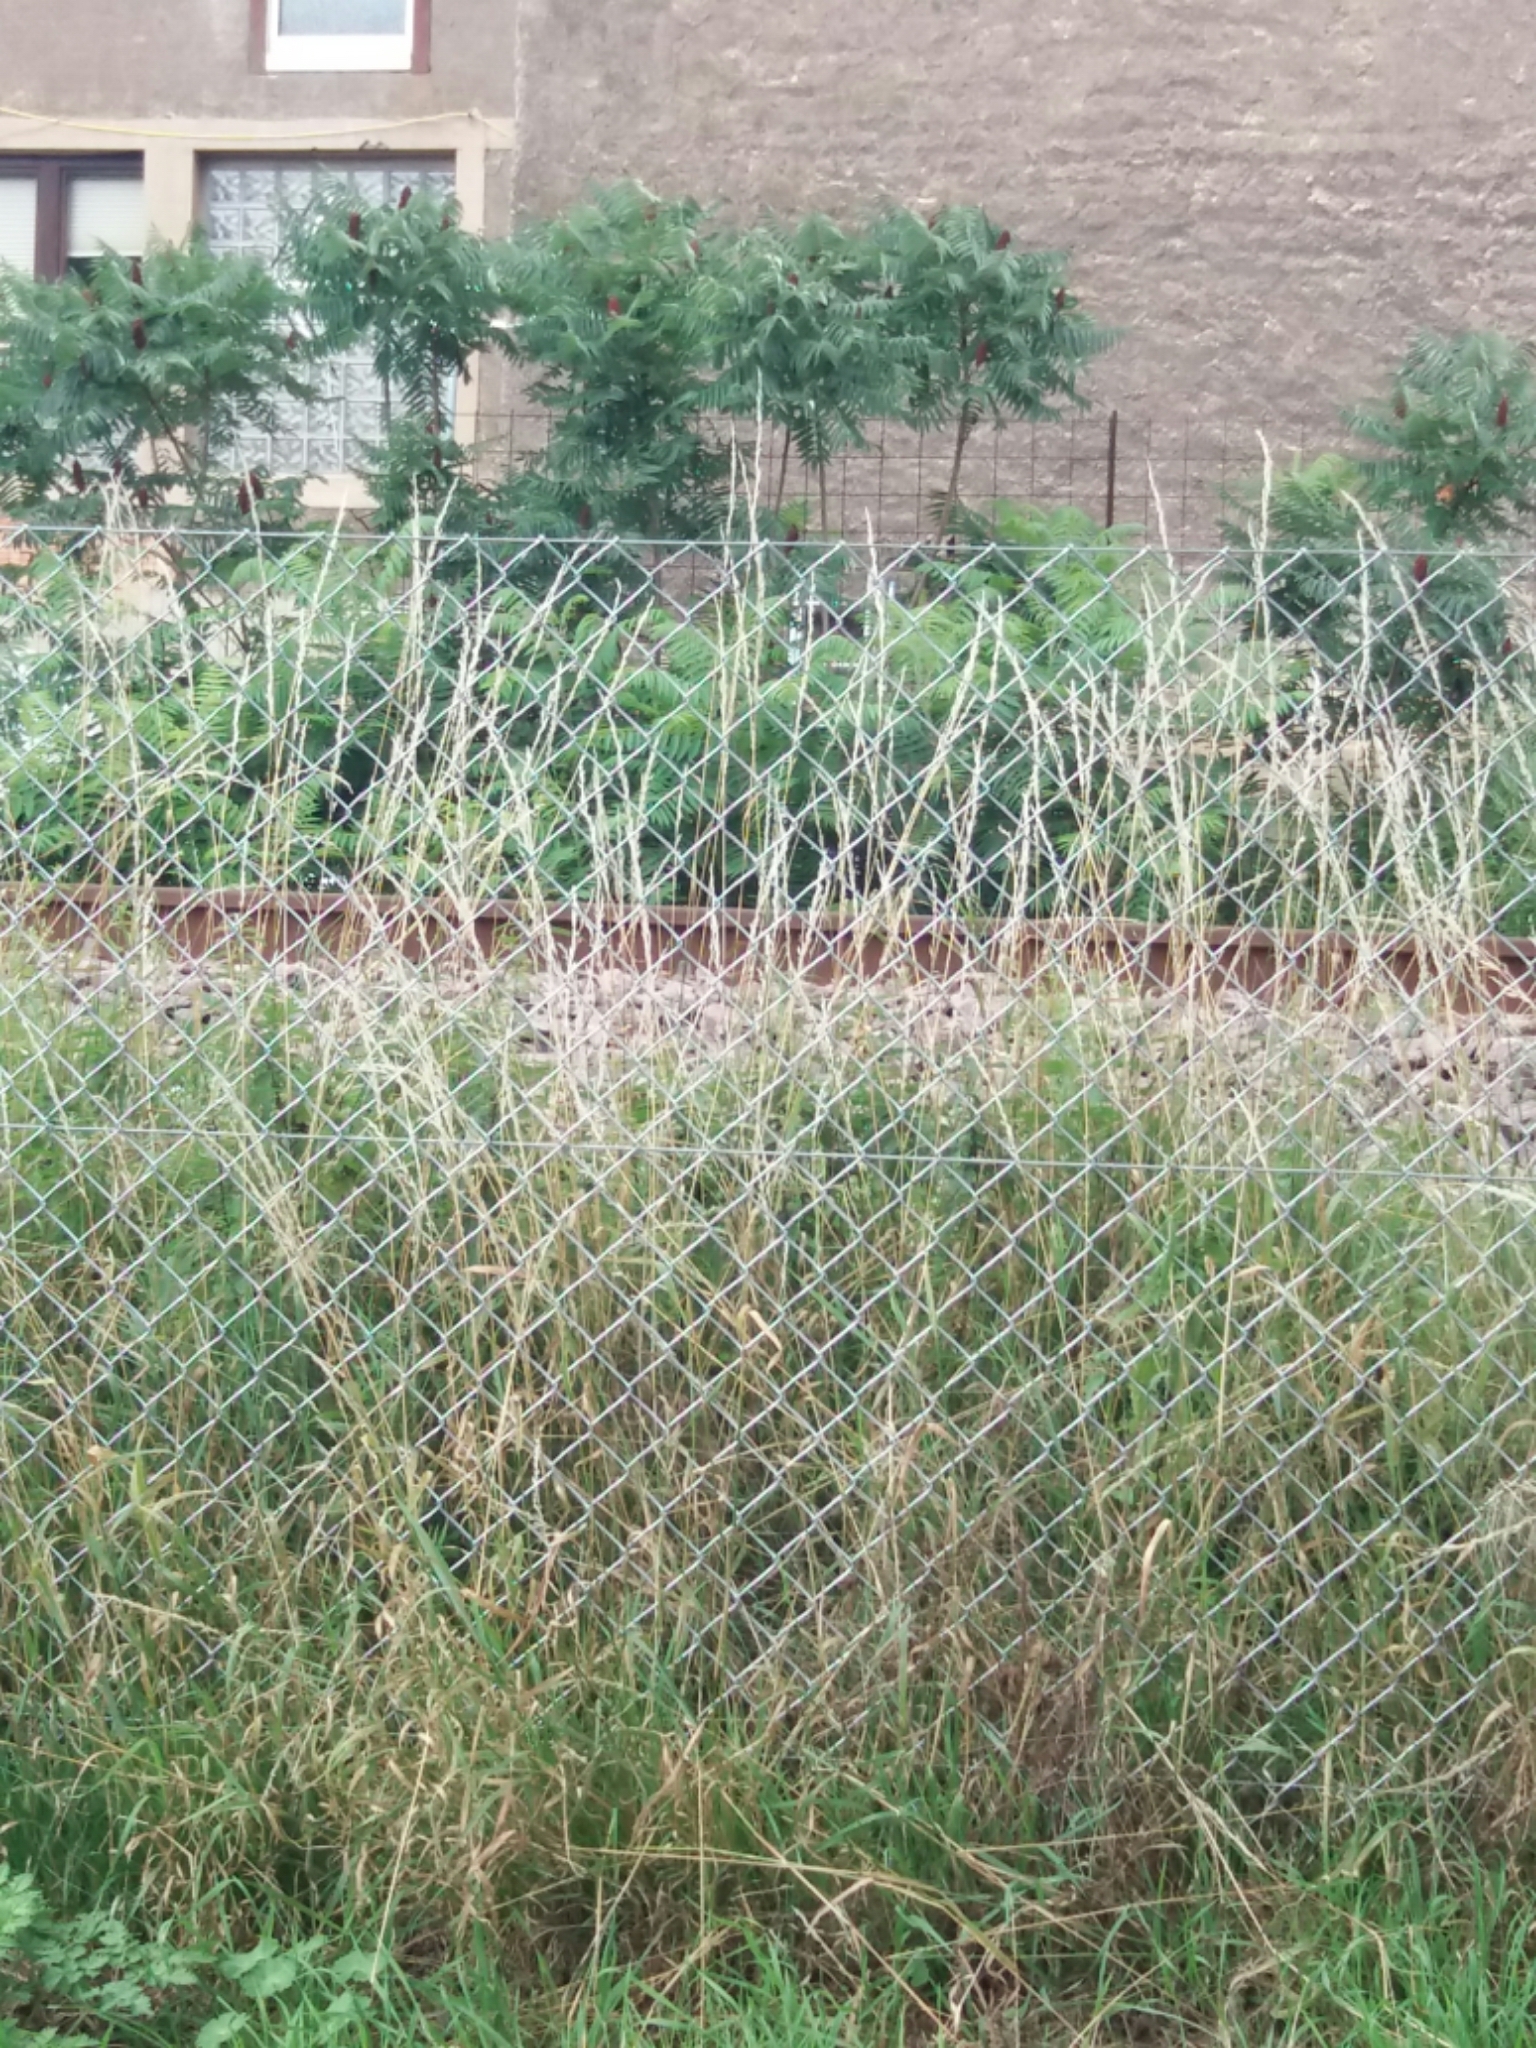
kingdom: Plantae
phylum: Tracheophyta
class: Magnoliopsida
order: Sapindales
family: Anacardiaceae
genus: Rhus
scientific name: Rhus typhina
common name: Staghorn sumac
